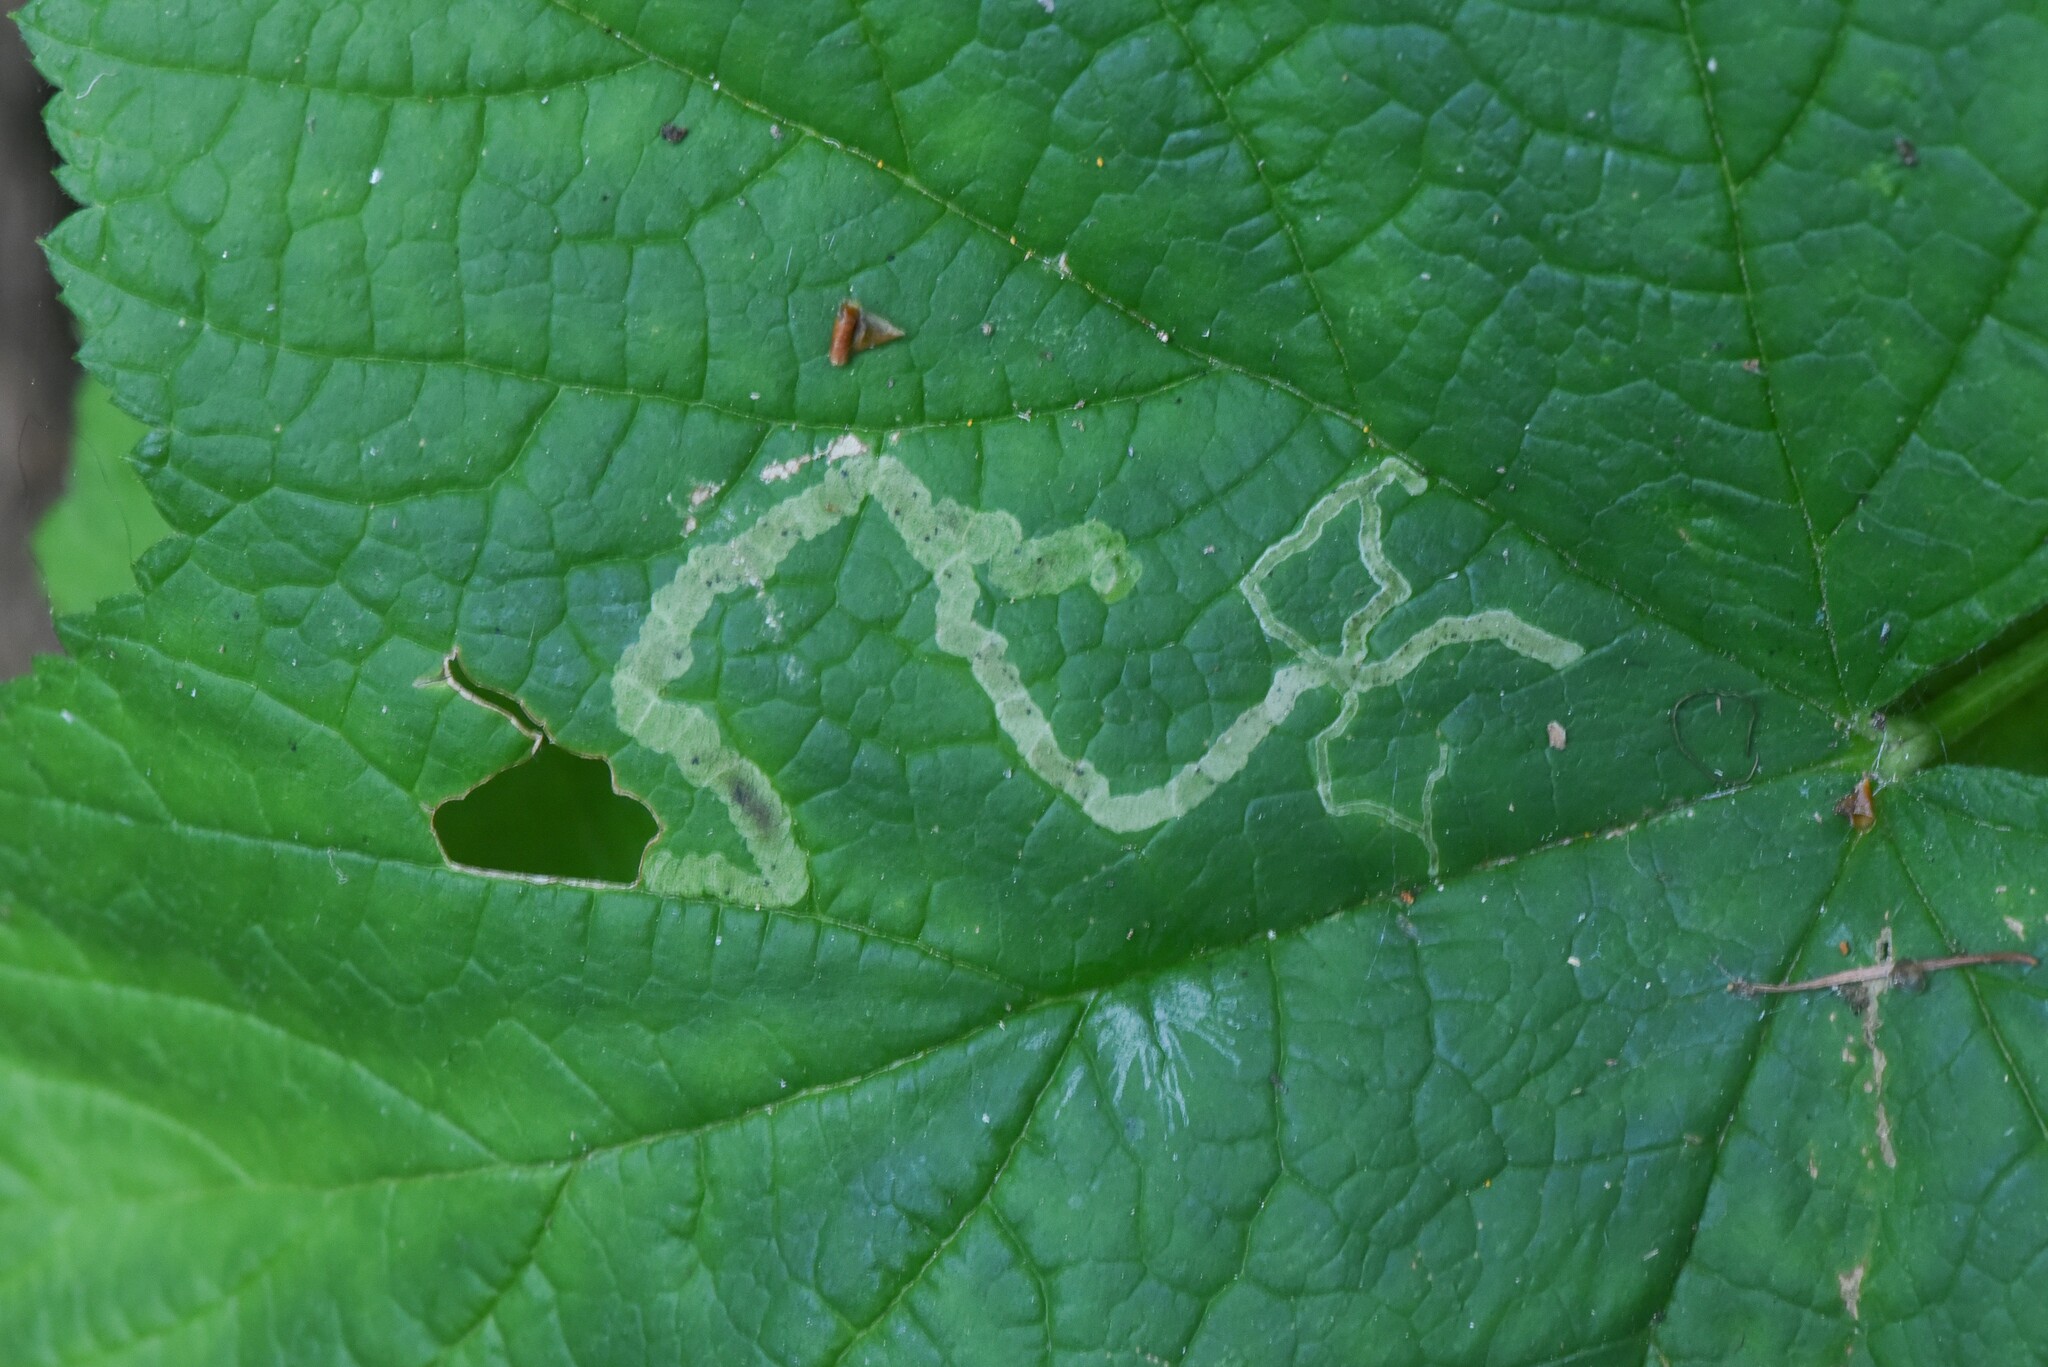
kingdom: Animalia
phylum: Arthropoda
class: Insecta
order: Diptera
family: Agromyzidae
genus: Agromyza
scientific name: Agromyza vockerothi
